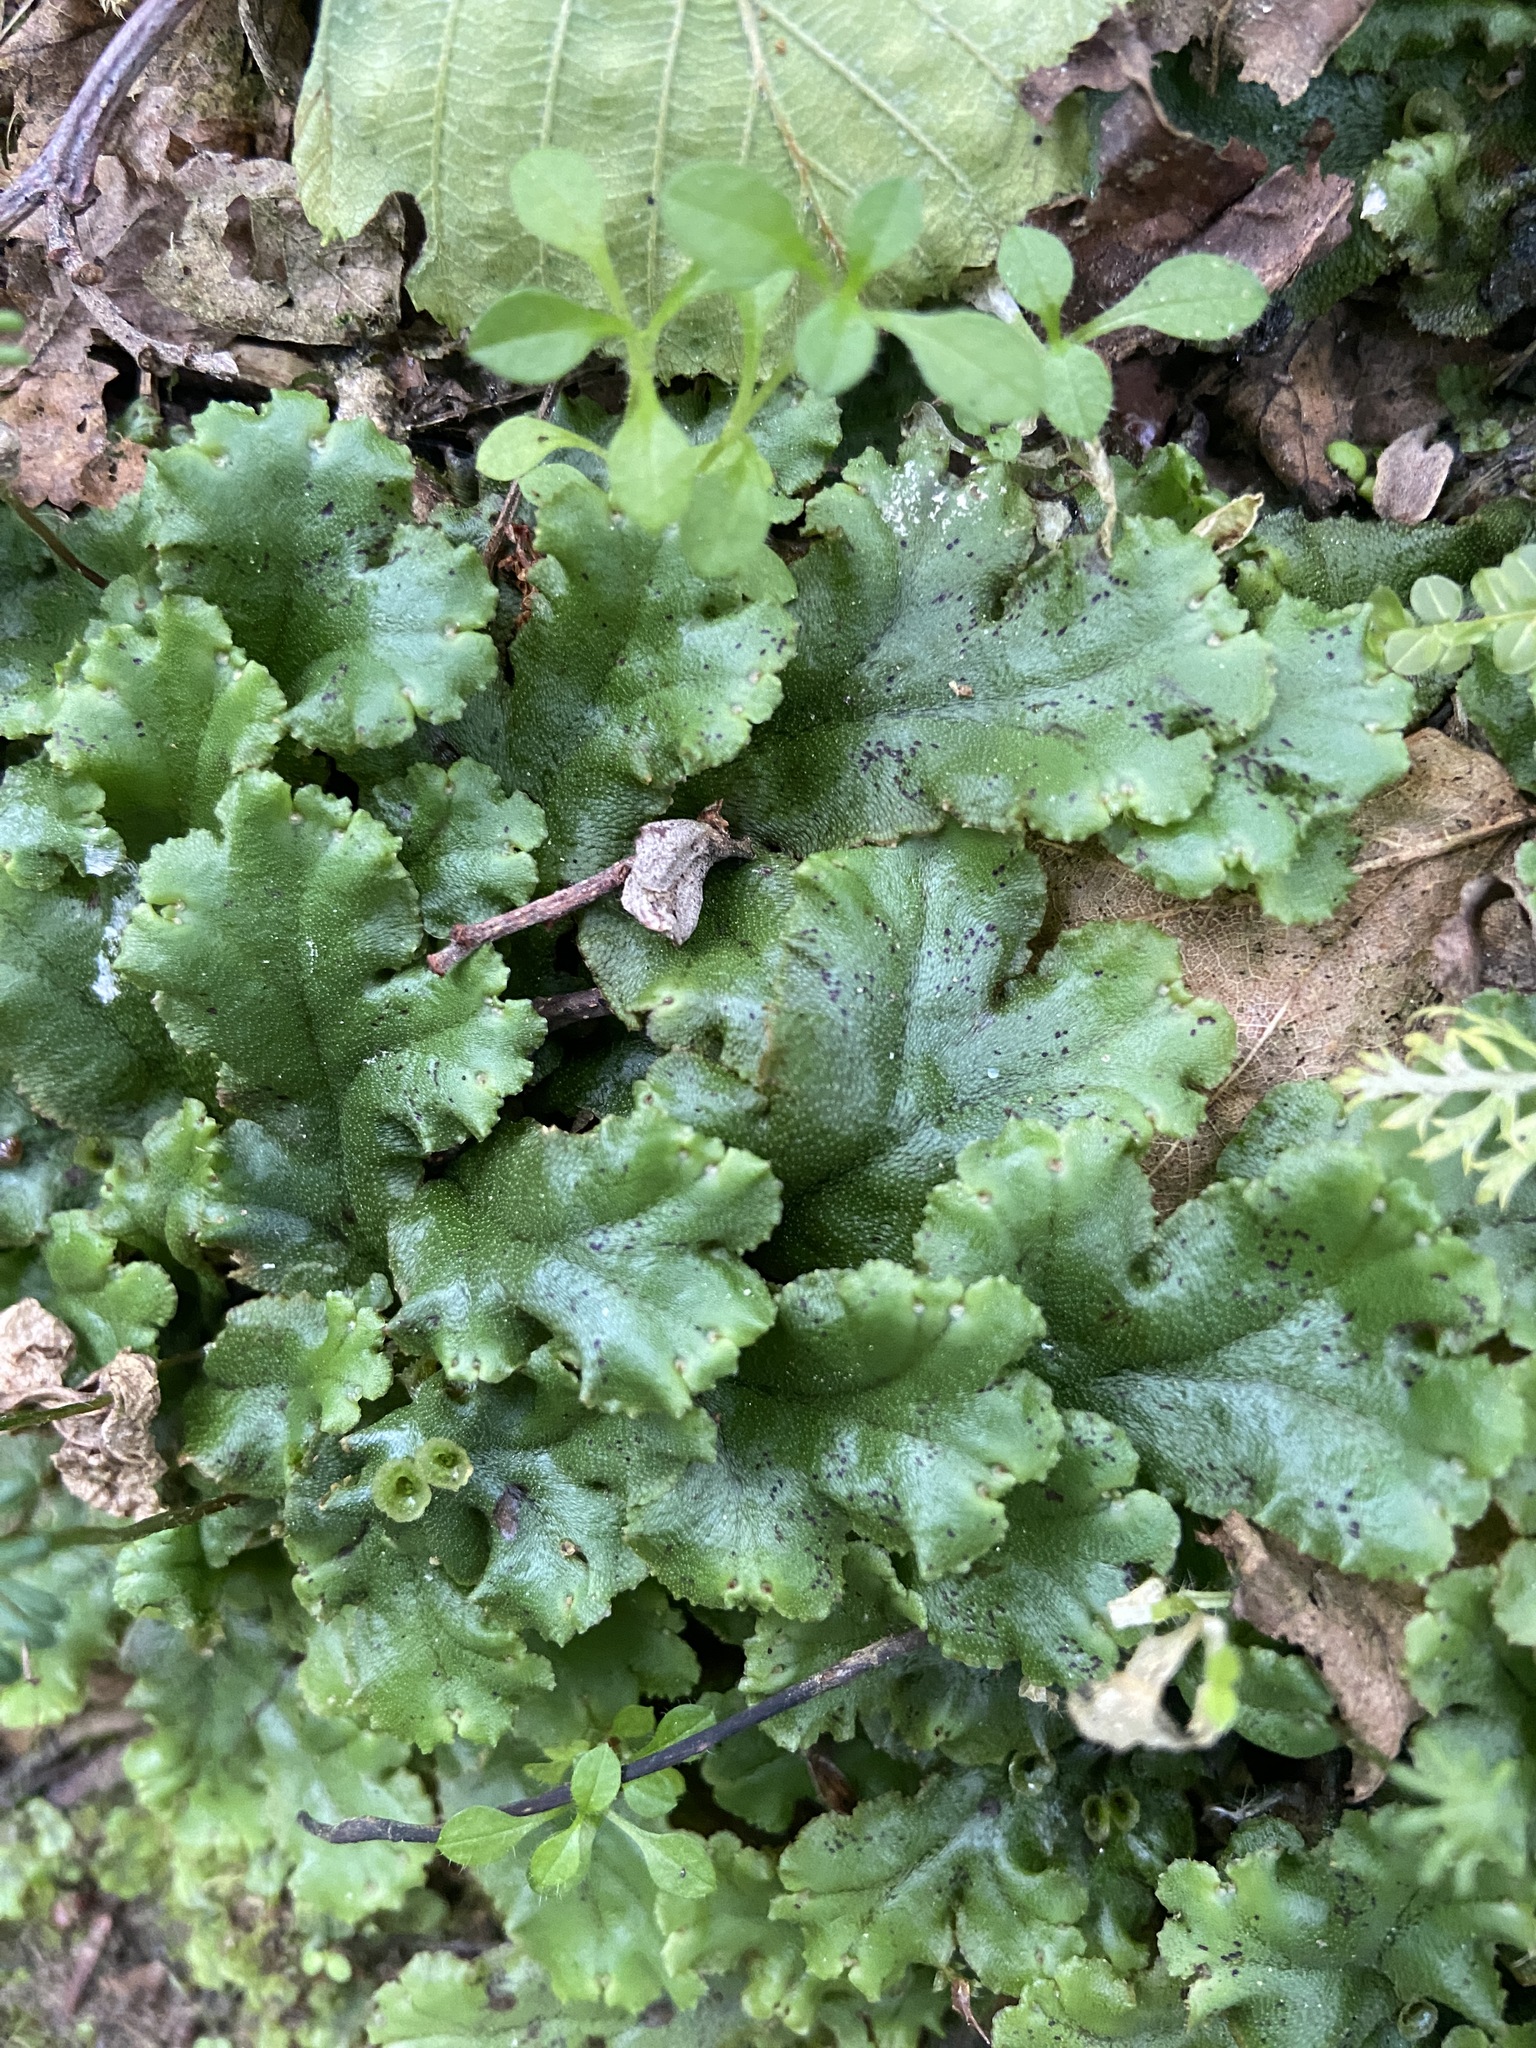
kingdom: Plantae
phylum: Marchantiophyta
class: Marchantiopsida
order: Marchantiales
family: Marchantiaceae
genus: Marchantia
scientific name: Marchantia polymorpha
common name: Common liverwort
